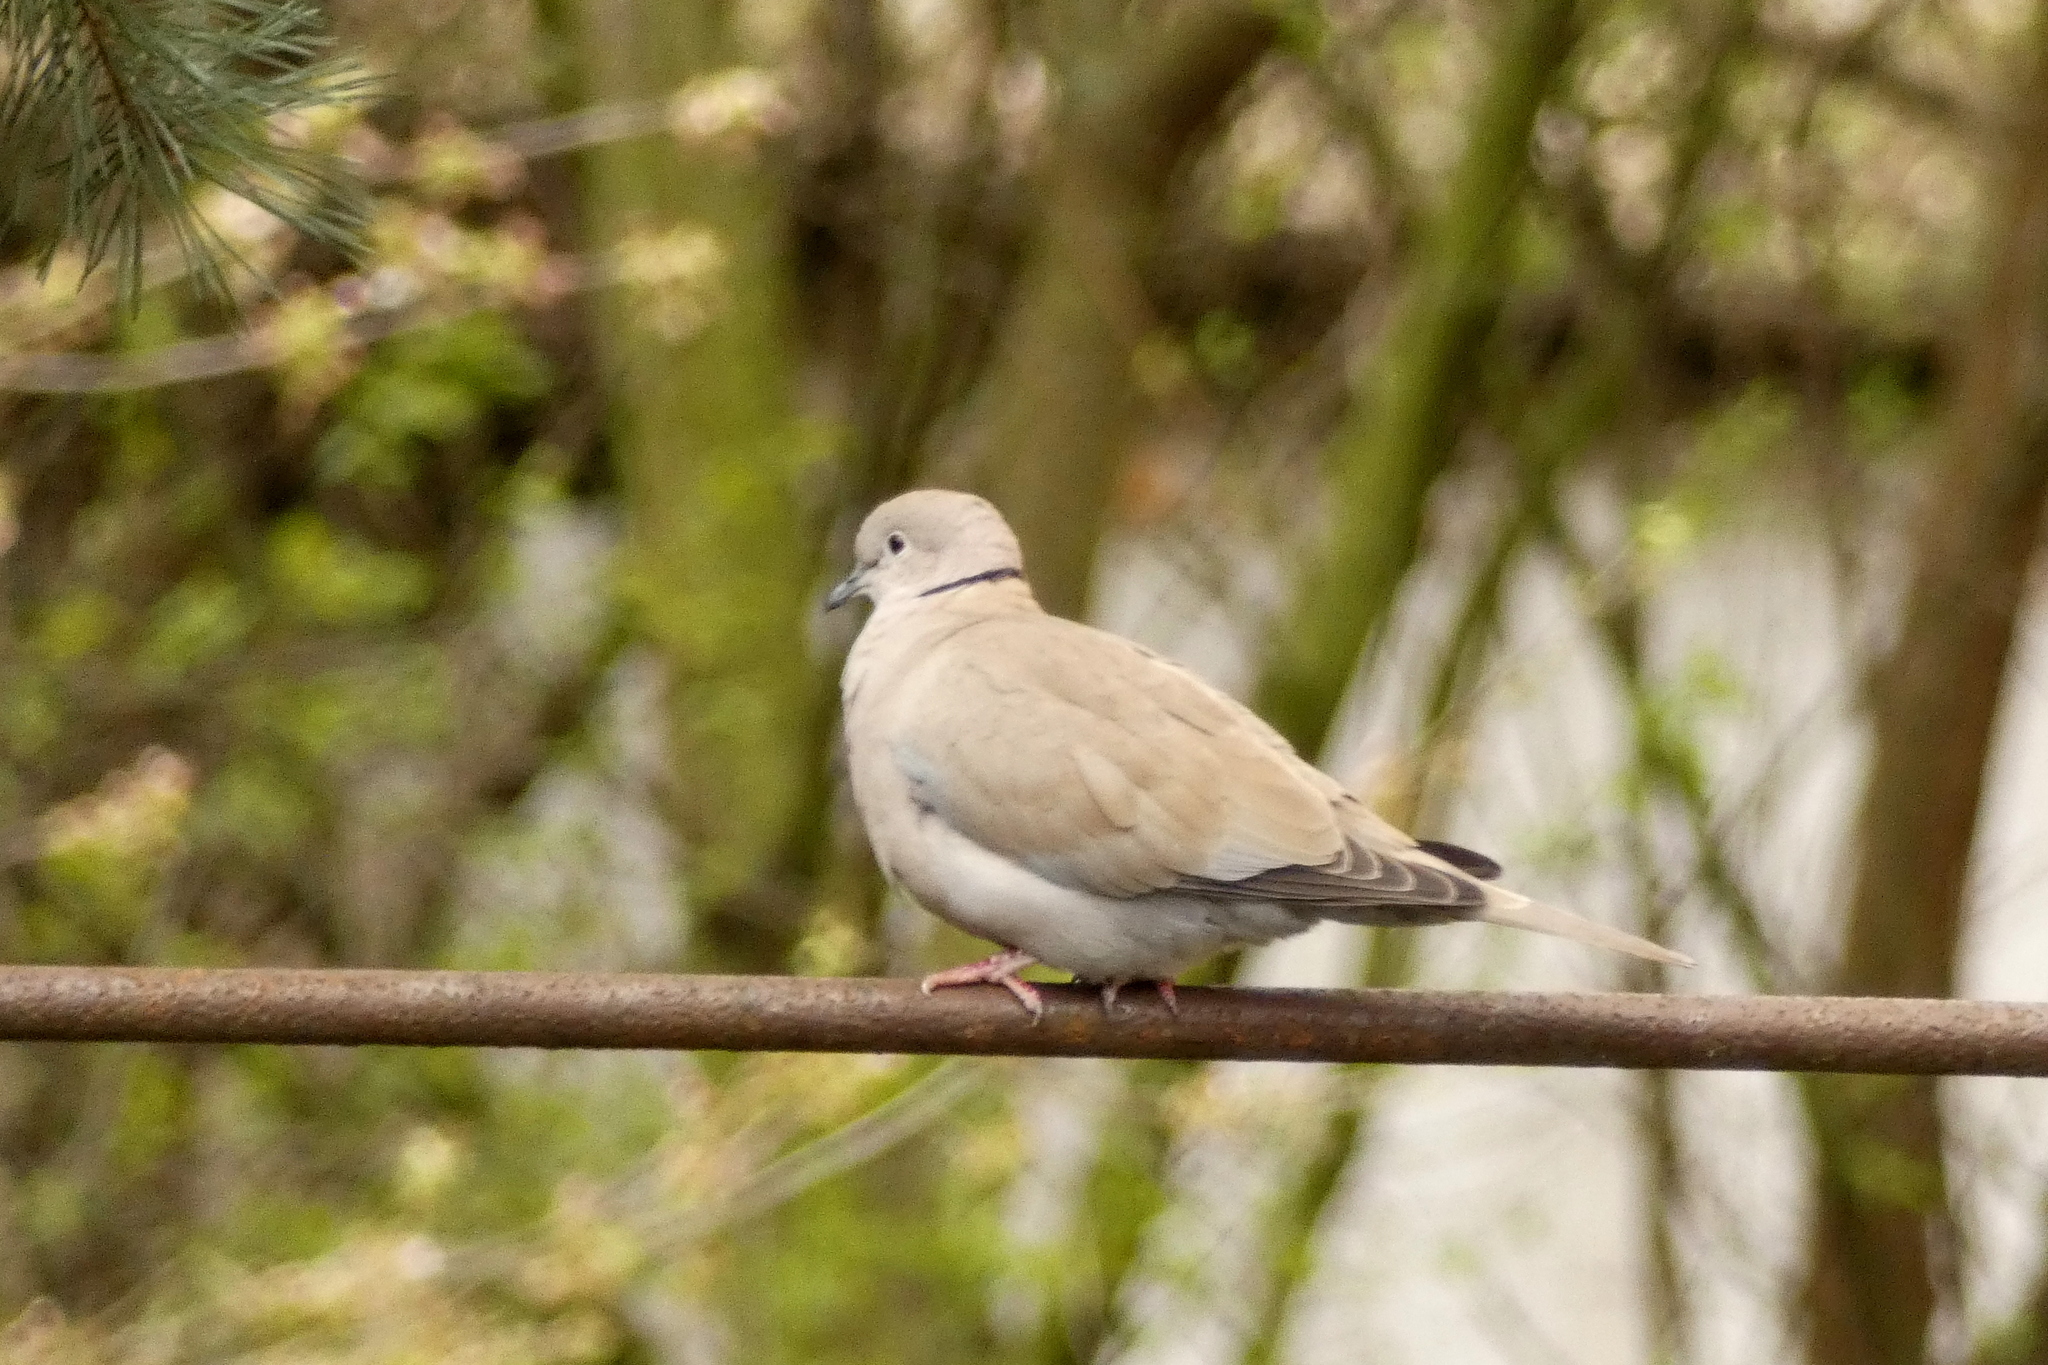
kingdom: Animalia
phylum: Chordata
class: Aves
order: Columbiformes
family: Columbidae
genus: Streptopelia
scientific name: Streptopelia decaocto
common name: Eurasian collared dove
